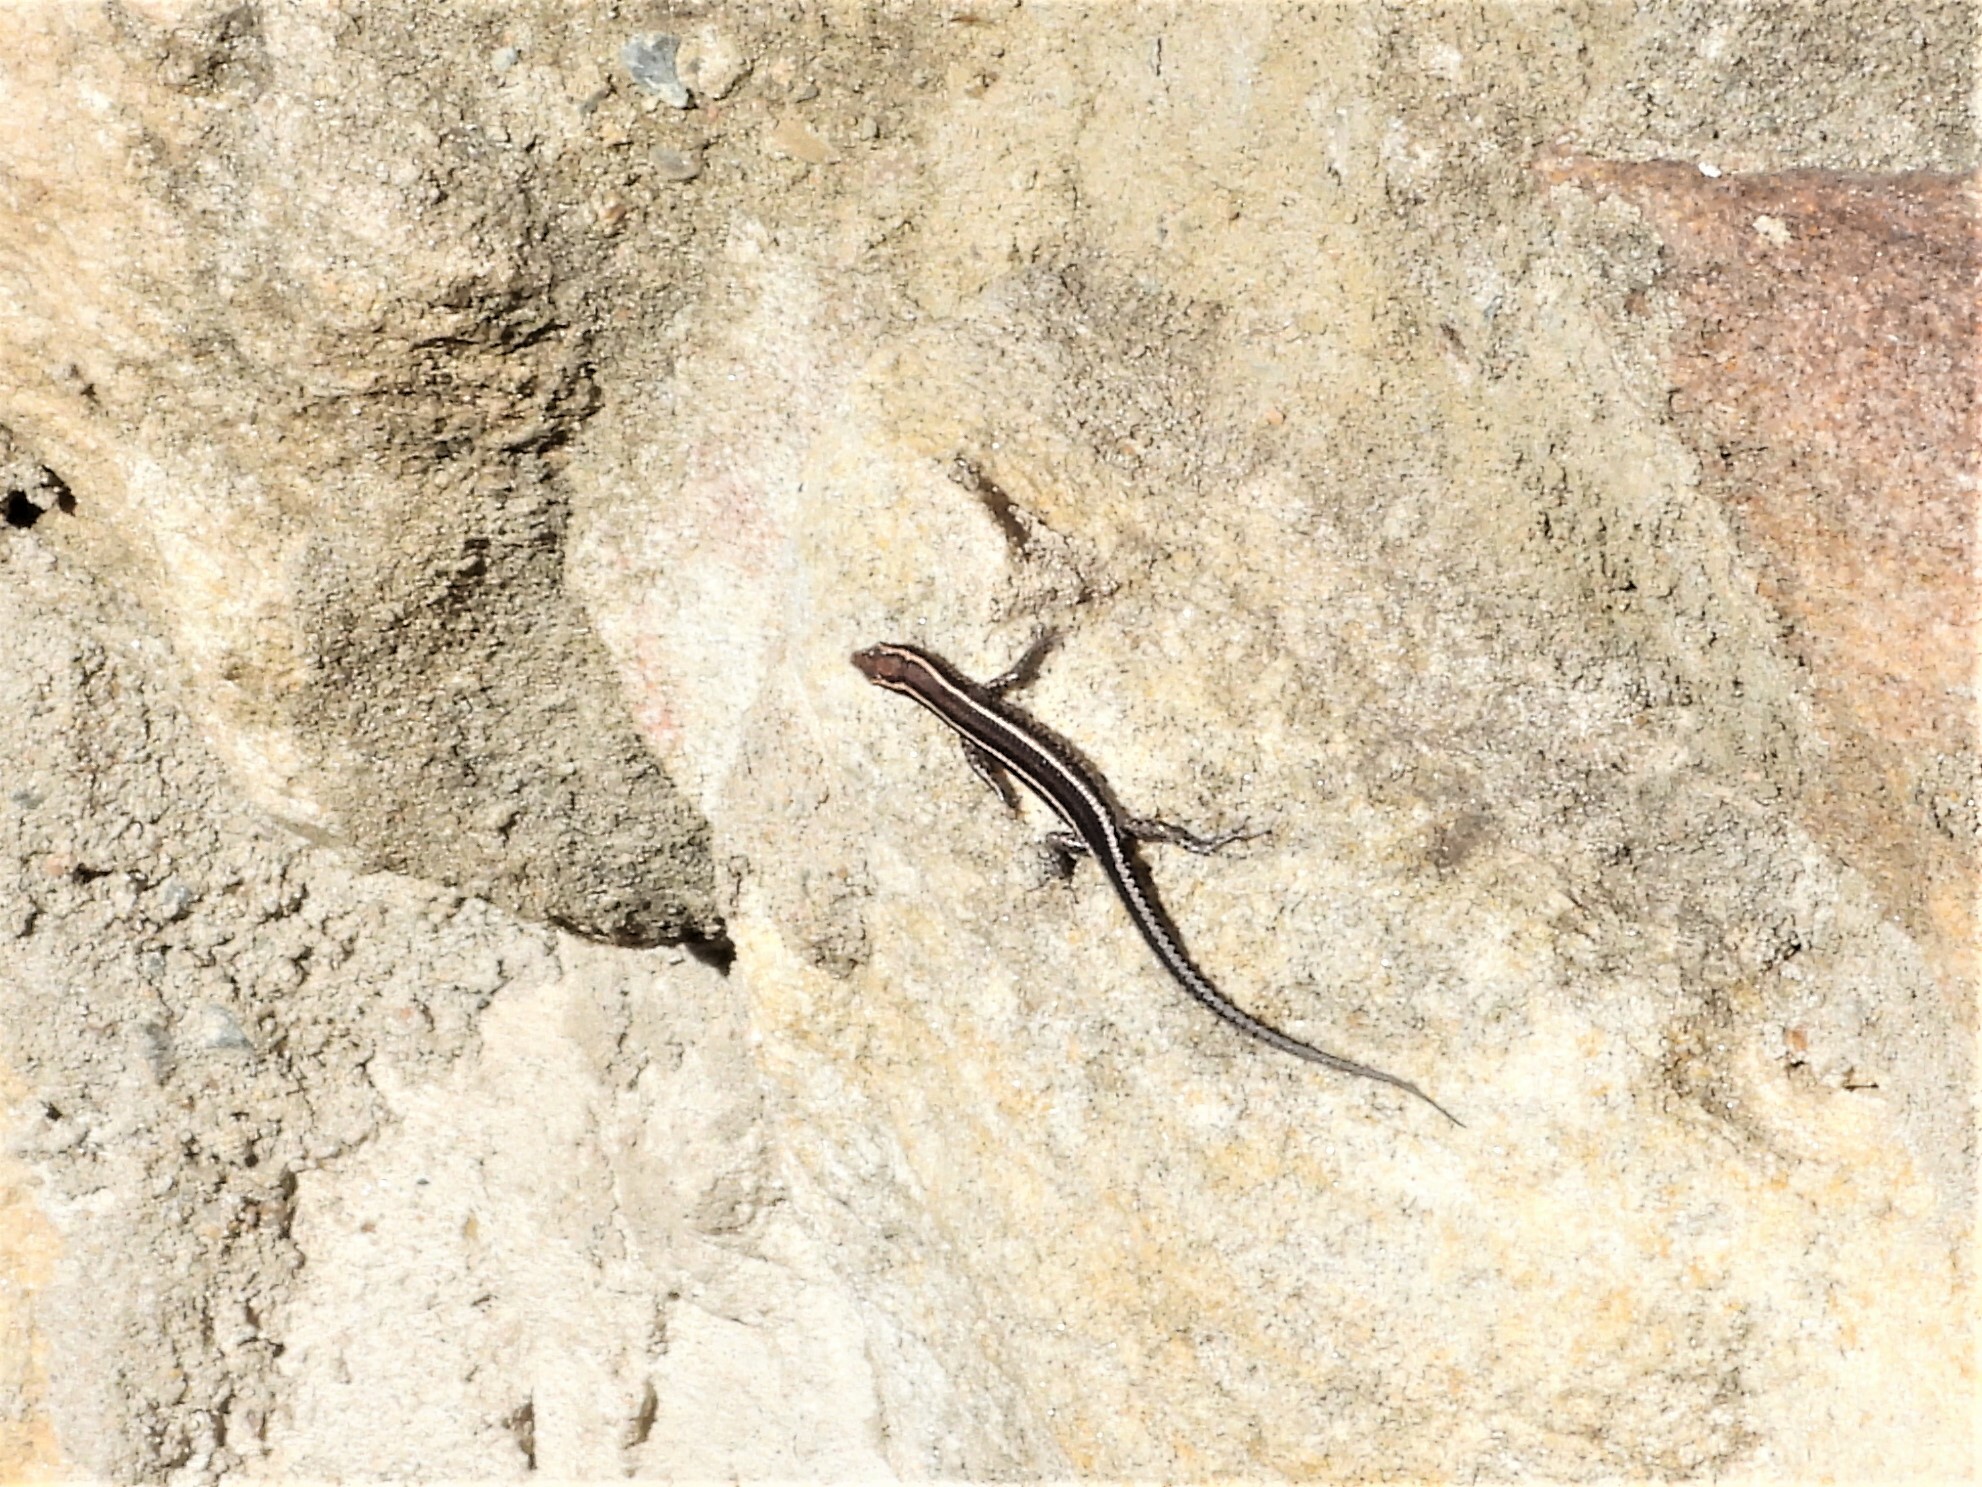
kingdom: Animalia
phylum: Chordata
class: Squamata
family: Scincidae
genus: Cryptoblepharus
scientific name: Cryptoblepharus pulcher
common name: Elegant snake-eyed skink
